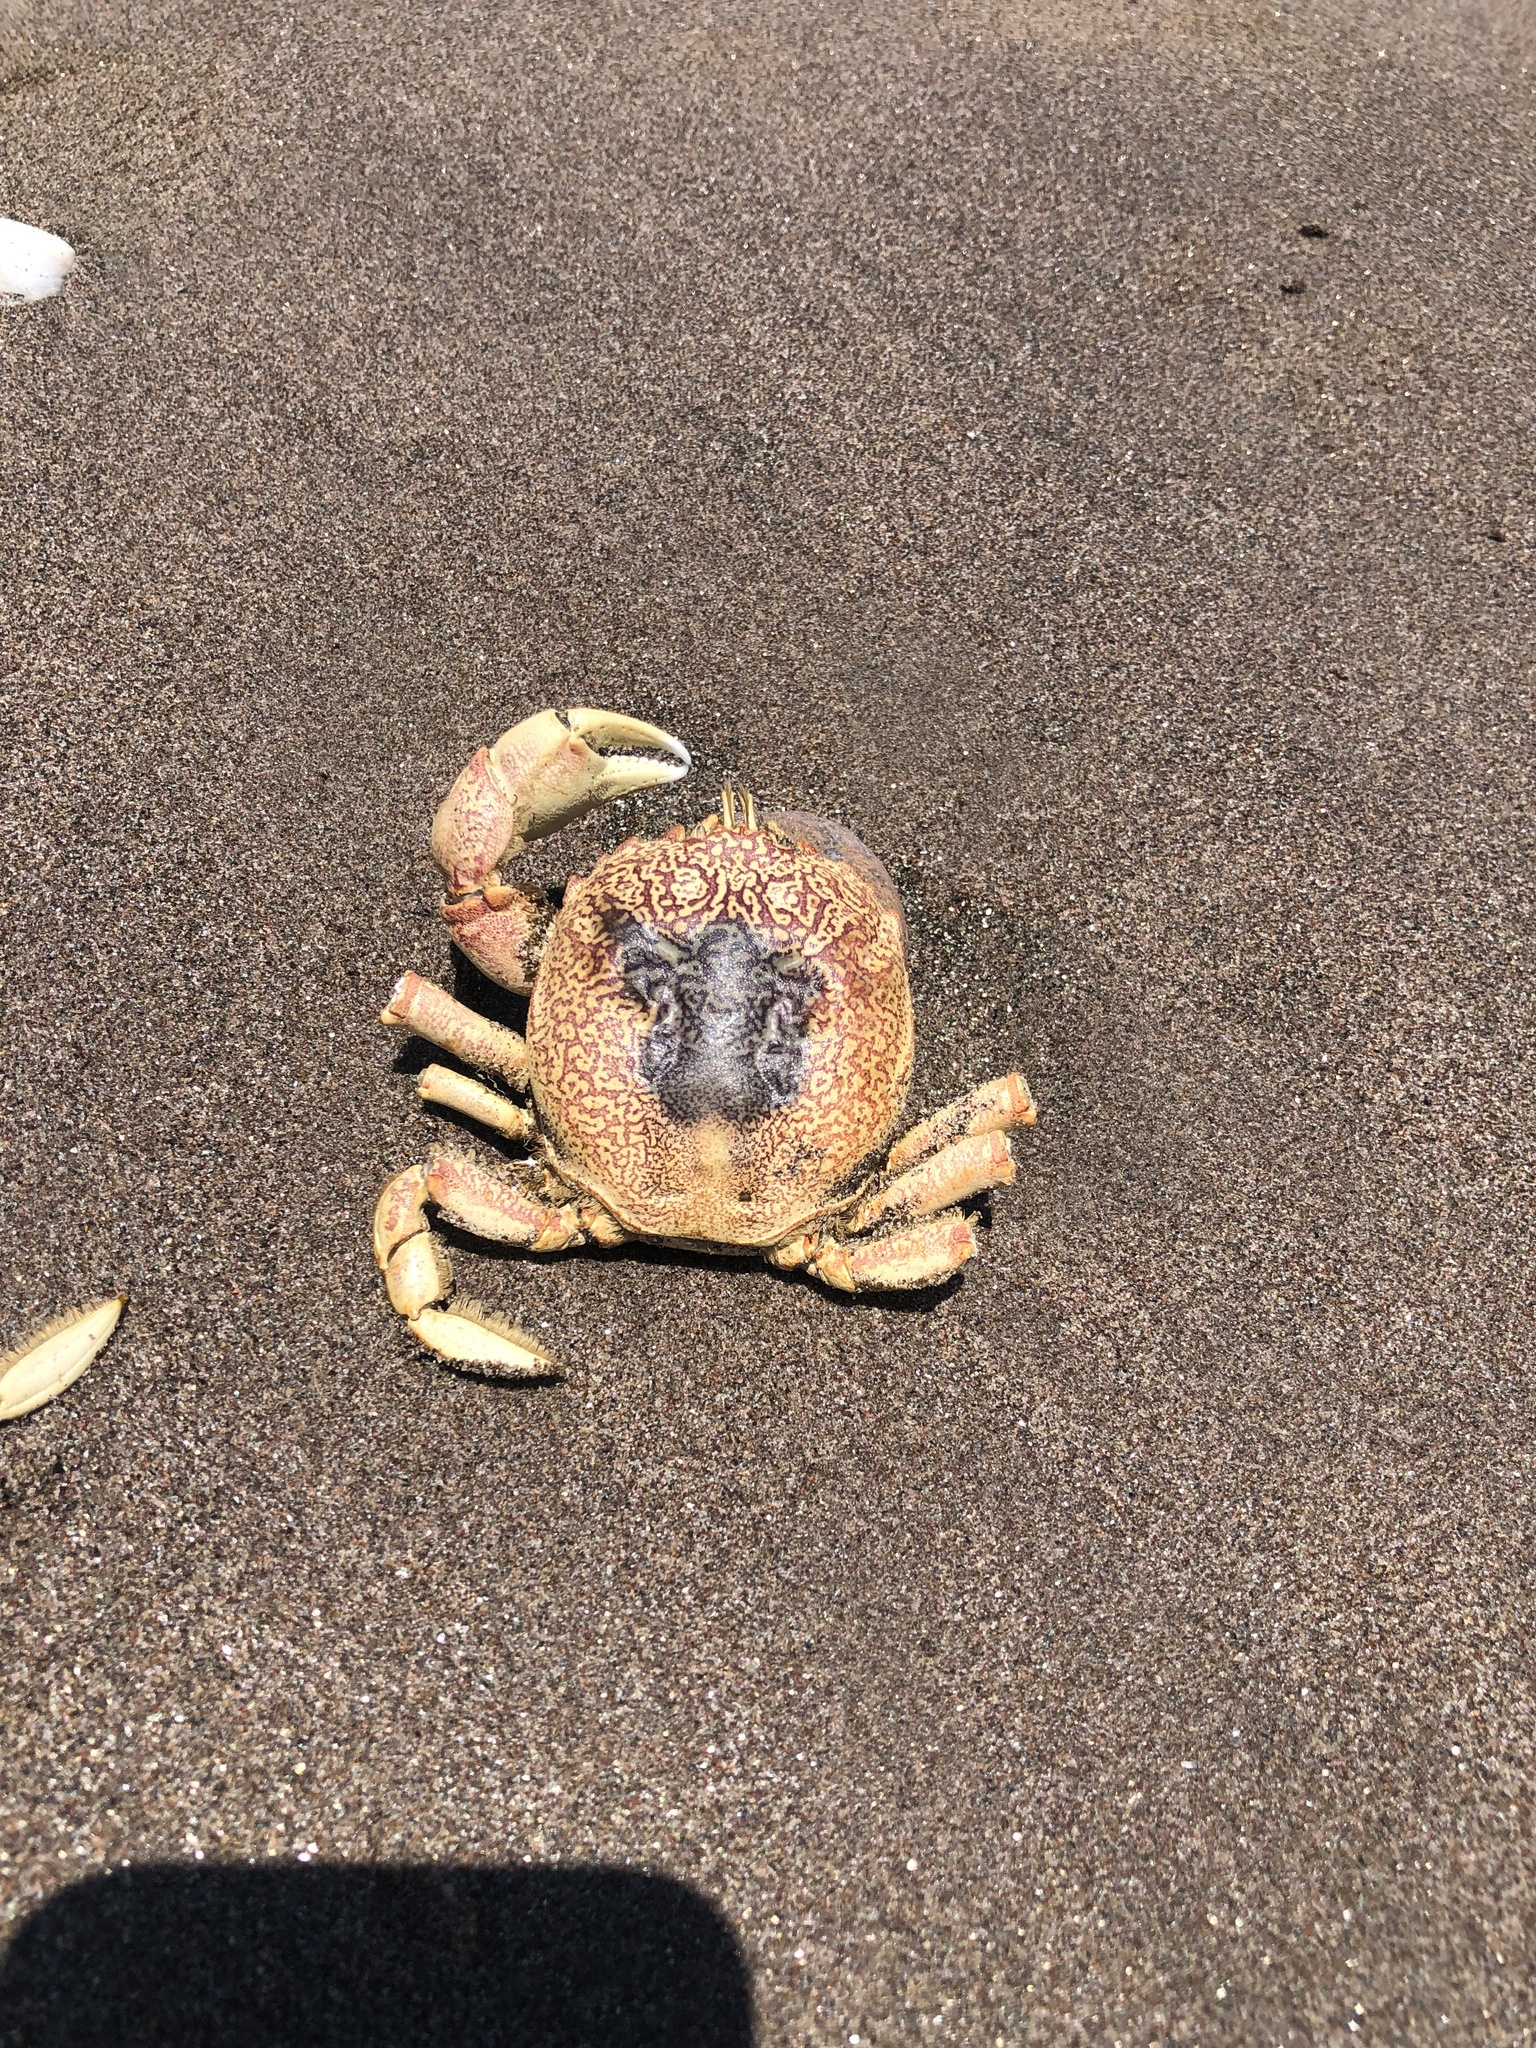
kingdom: Animalia
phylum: Arthropoda
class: Malacostraca
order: Decapoda
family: Belliidae
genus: Bellia
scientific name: Bellia picta
